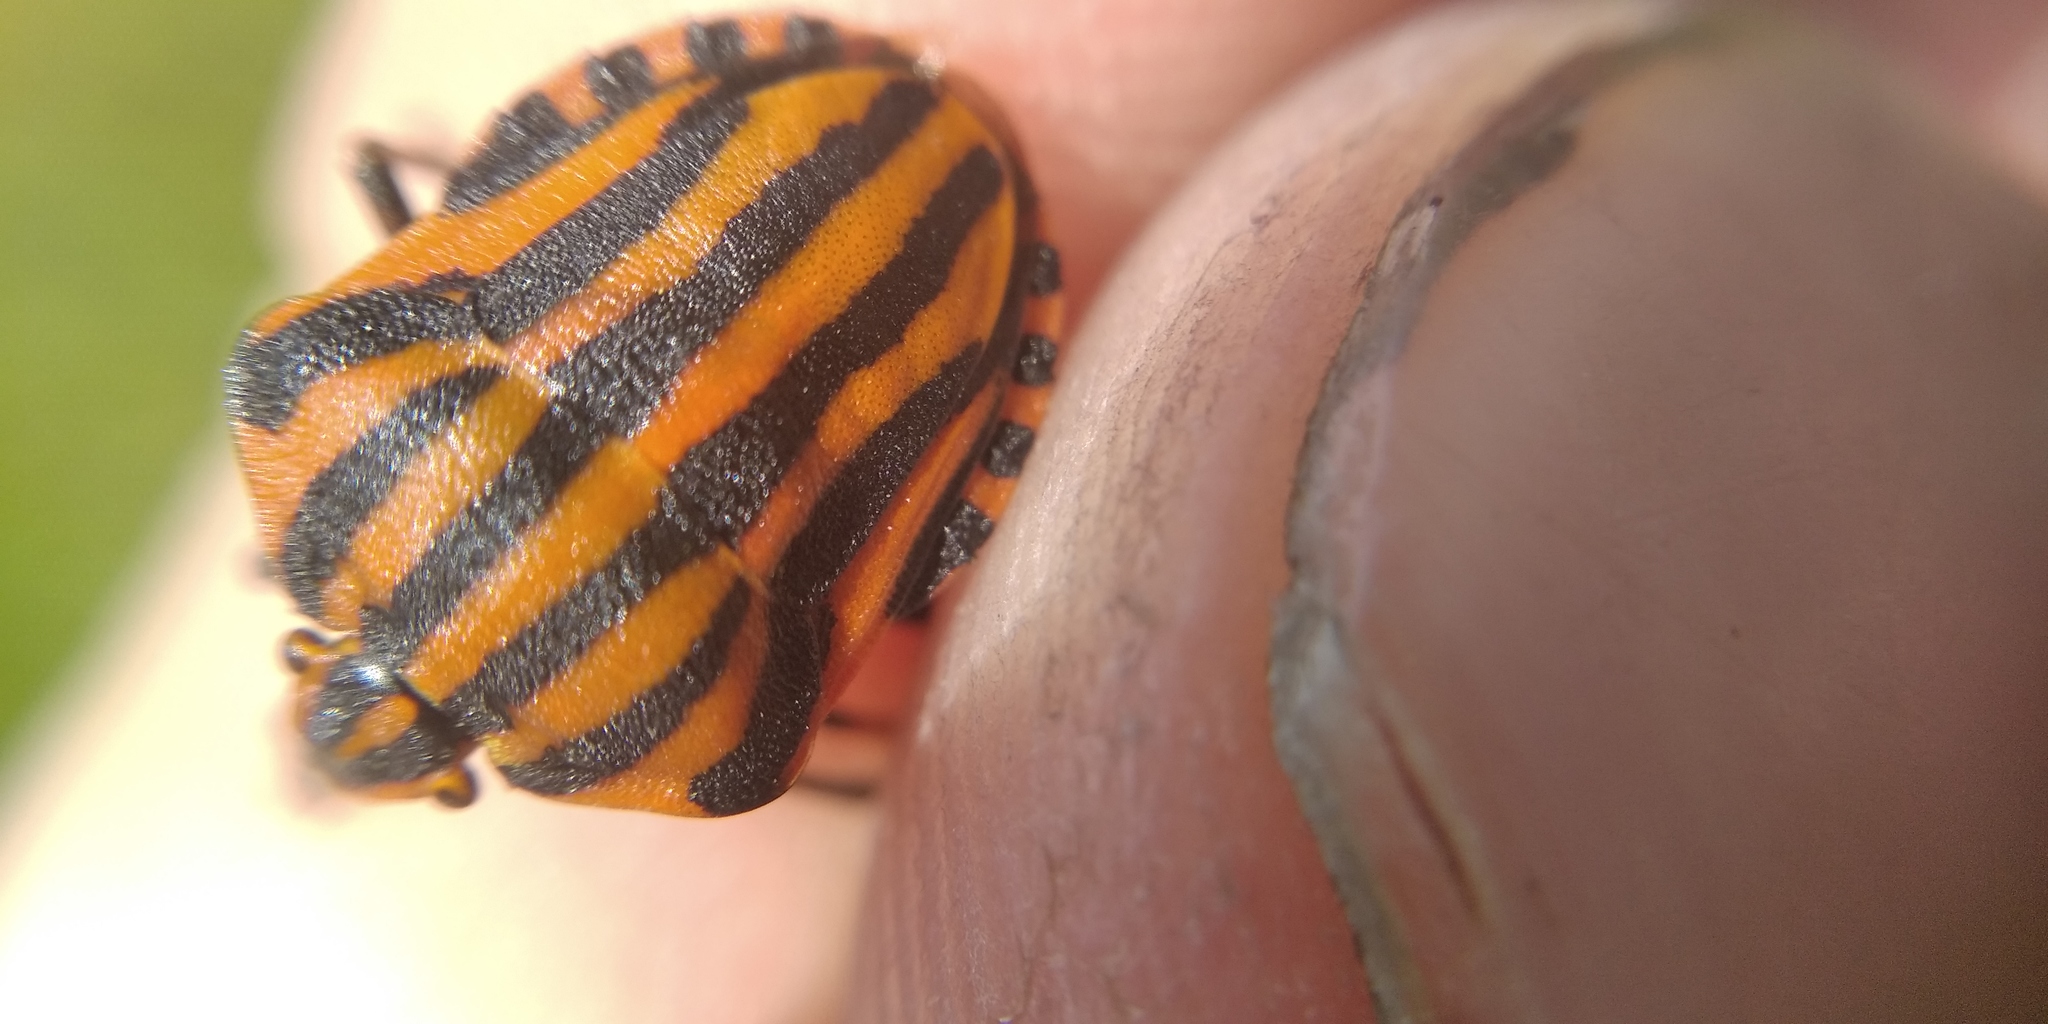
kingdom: Animalia
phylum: Arthropoda
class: Insecta
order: Hemiptera
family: Pentatomidae
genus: Graphosoma
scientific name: Graphosoma italicum
